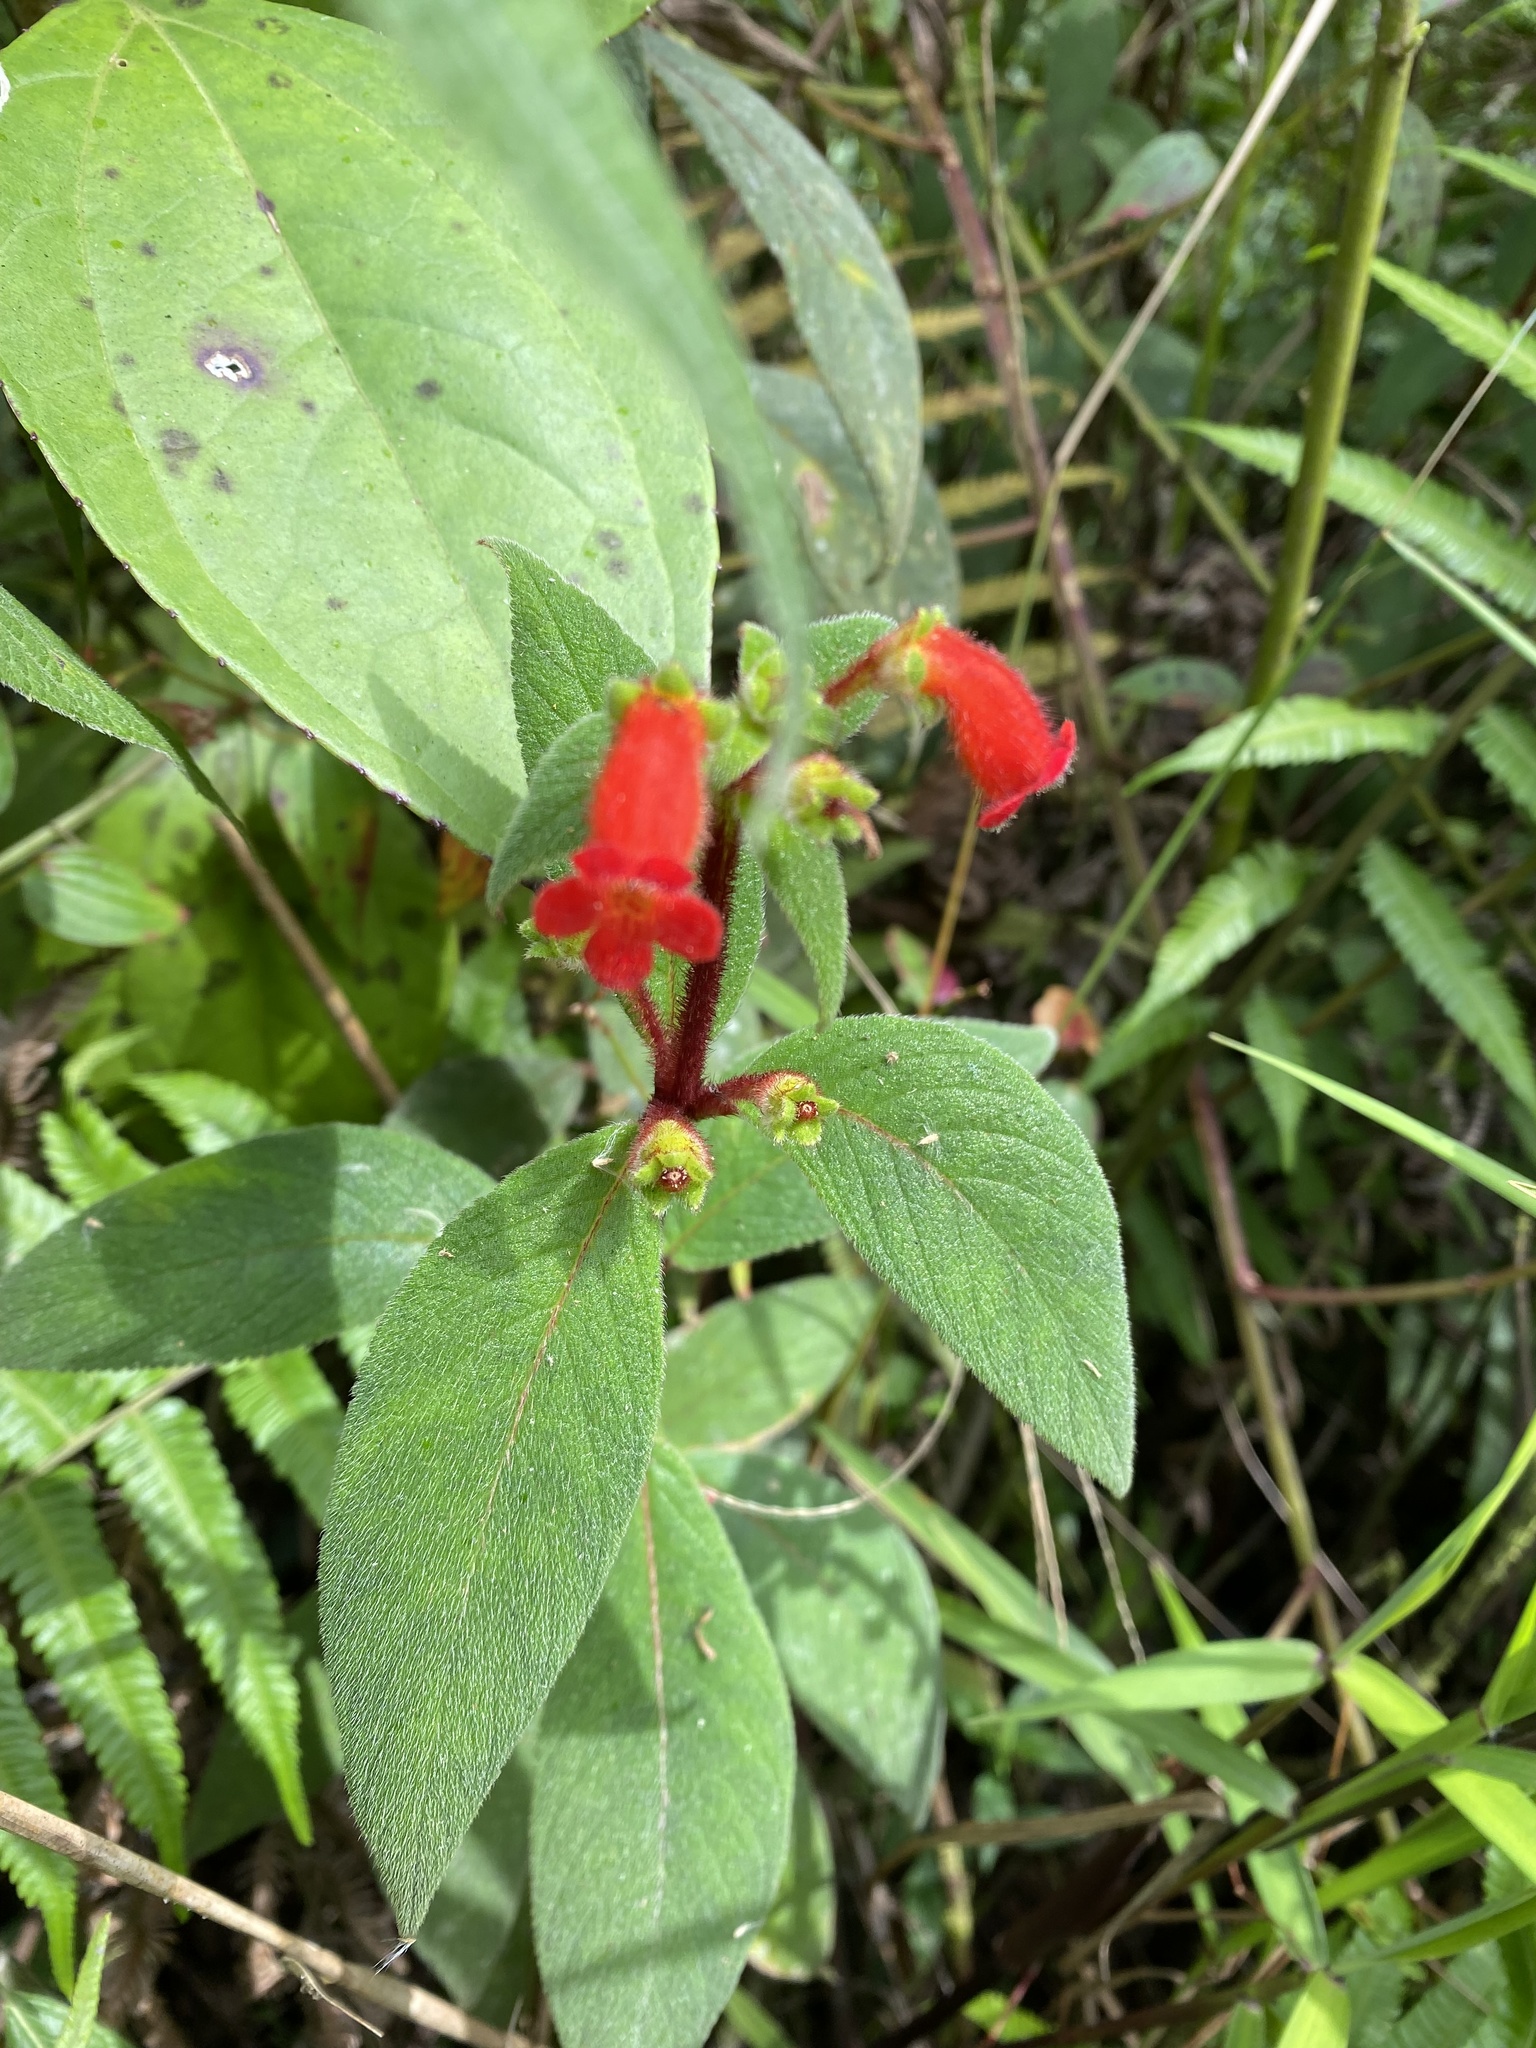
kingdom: Plantae
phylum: Tracheophyta
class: Magnoliopsida
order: Lamiales
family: Gesneriaceae
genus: Kohleria
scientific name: Kohleria spicata
